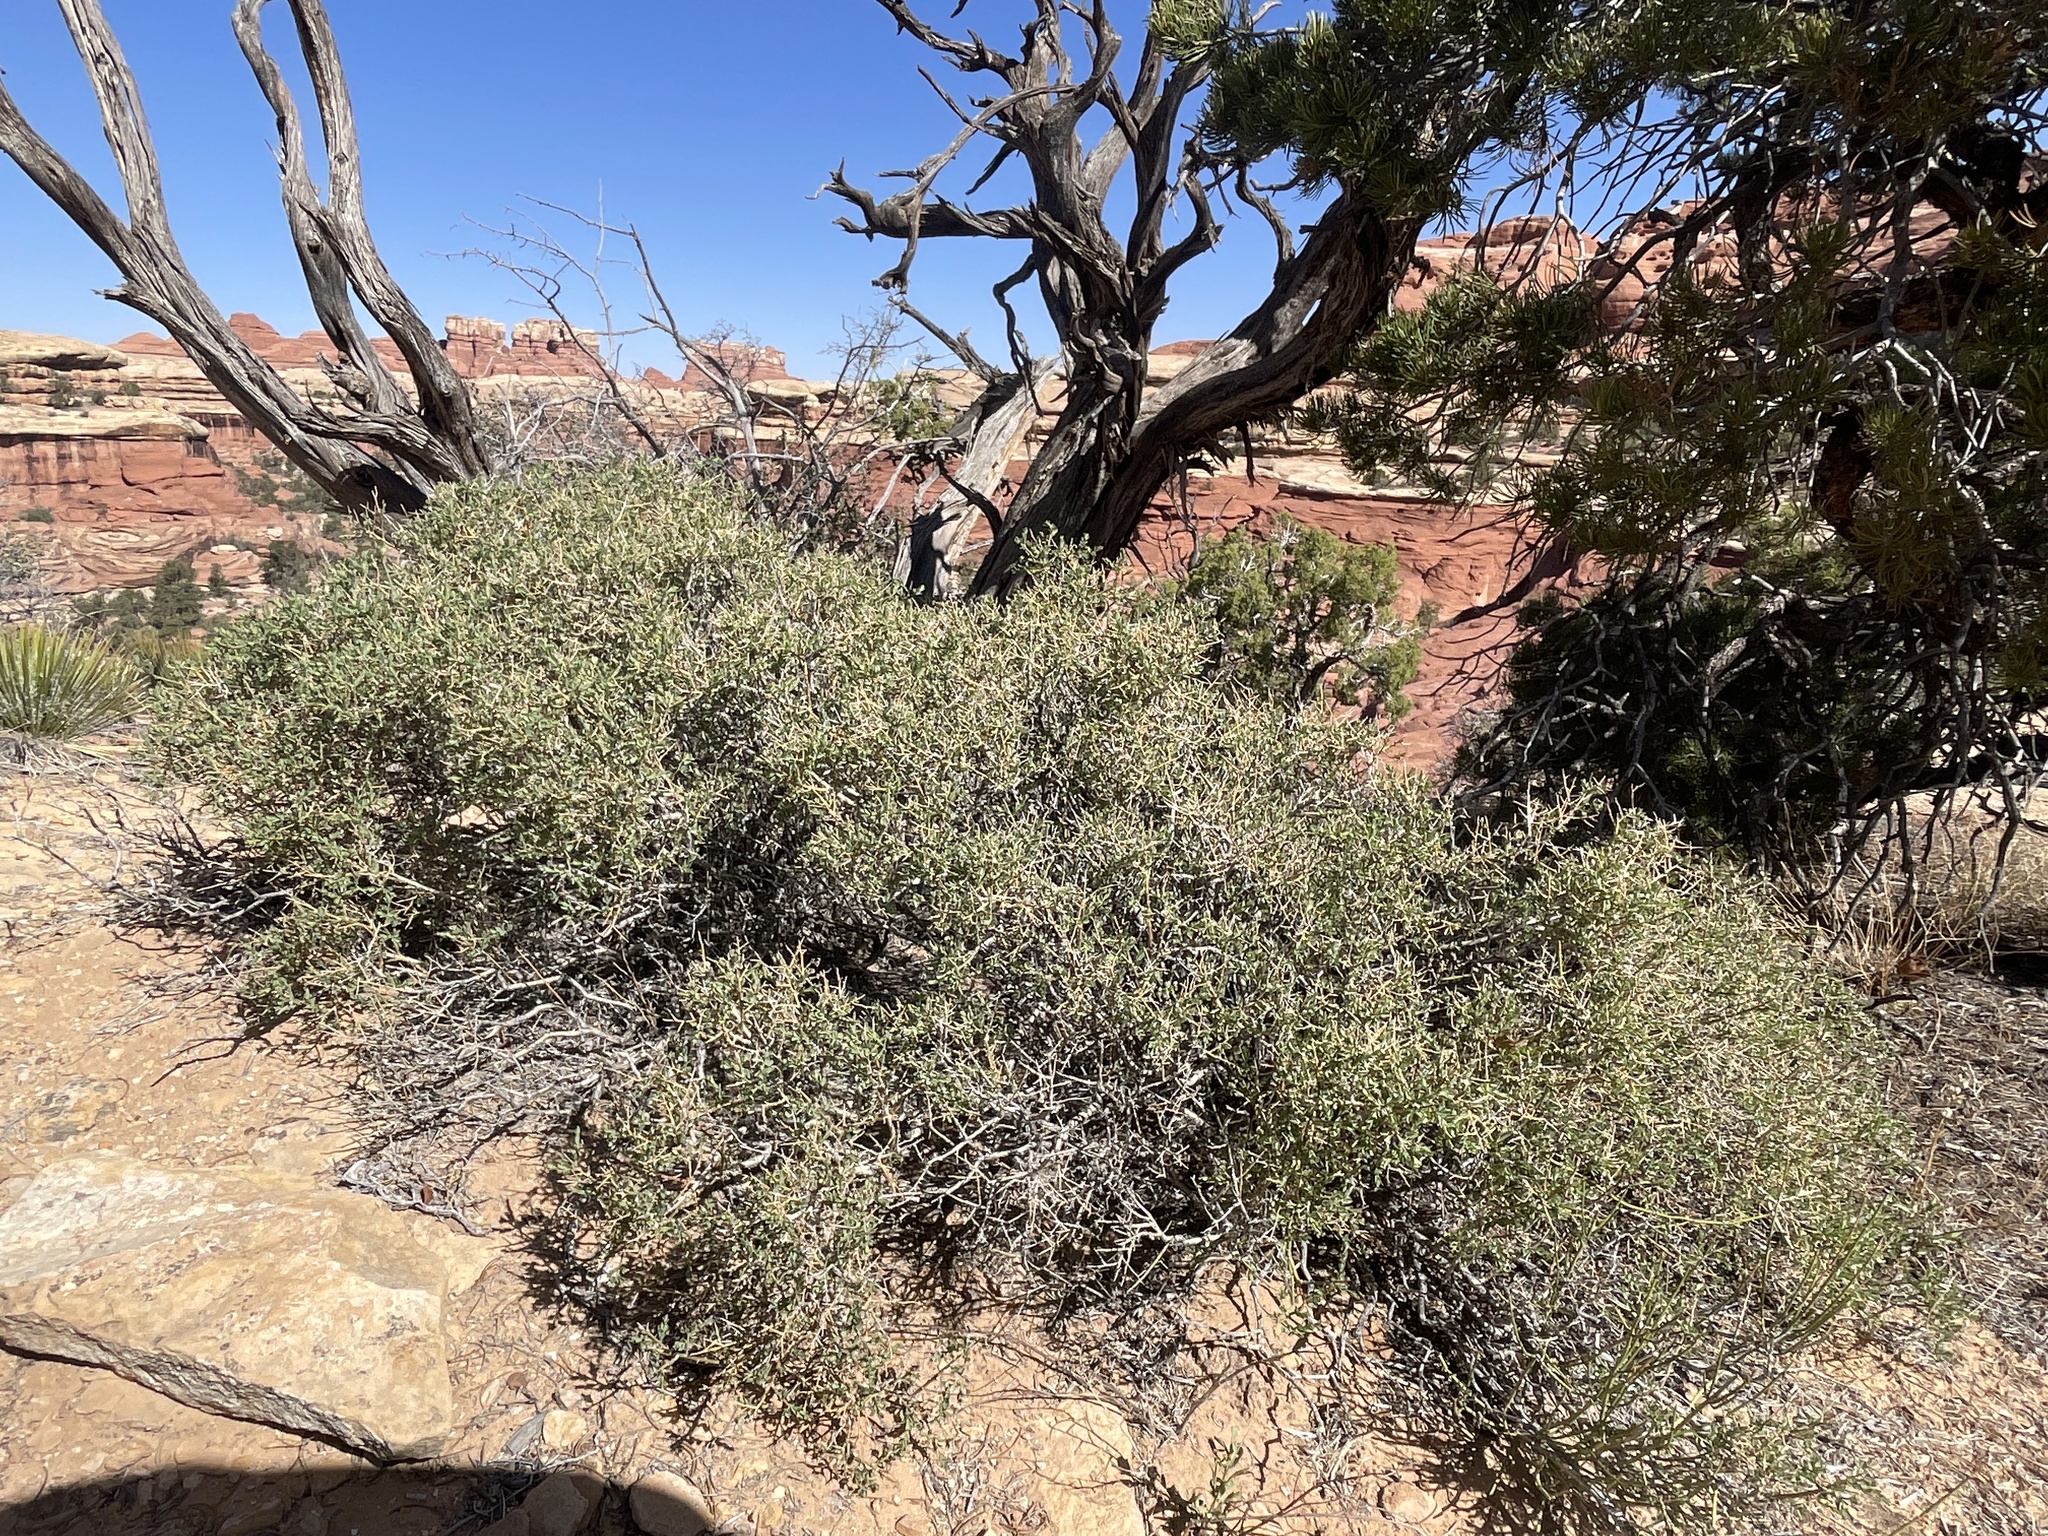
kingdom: Plantae
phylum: Tracheophyta
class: Magnoliopsida
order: Crossosomatales
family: Crossosomataceae
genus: Glossopetalon
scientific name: Glossopetalon spinescens
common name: Spring greasebush
